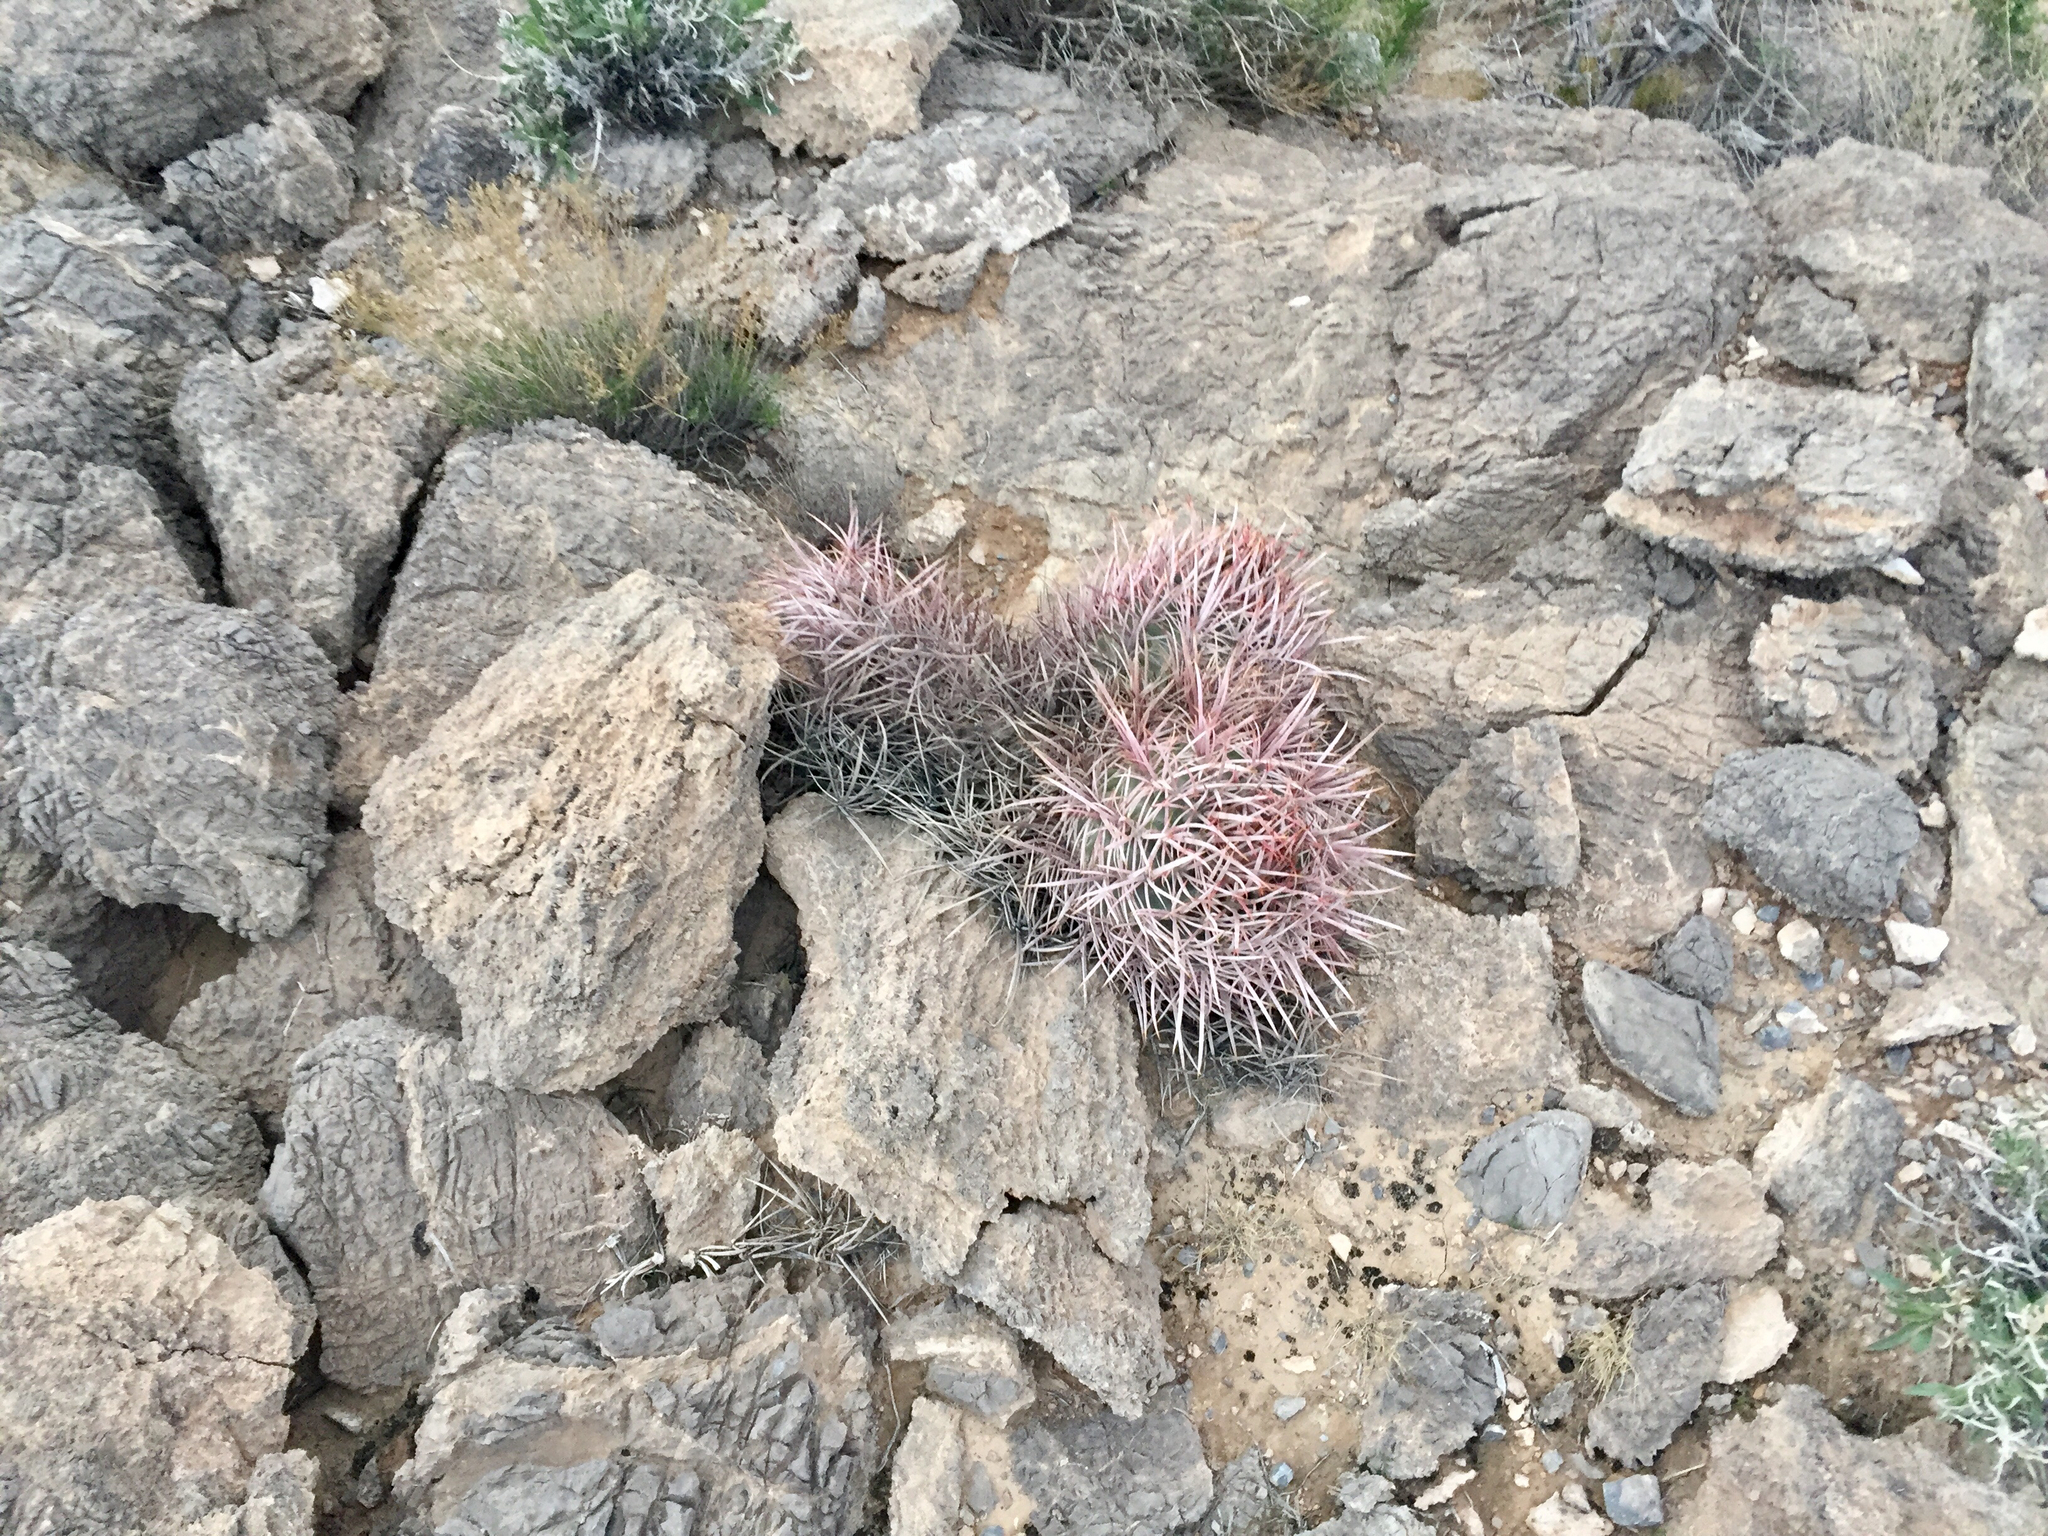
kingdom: Plantae
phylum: Tracheophyta
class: Magnoliopsida
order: Caryophyllales
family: Cactaceae
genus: Echinocactus
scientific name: Echinocactus polycephalus
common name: Cottontop cactus
